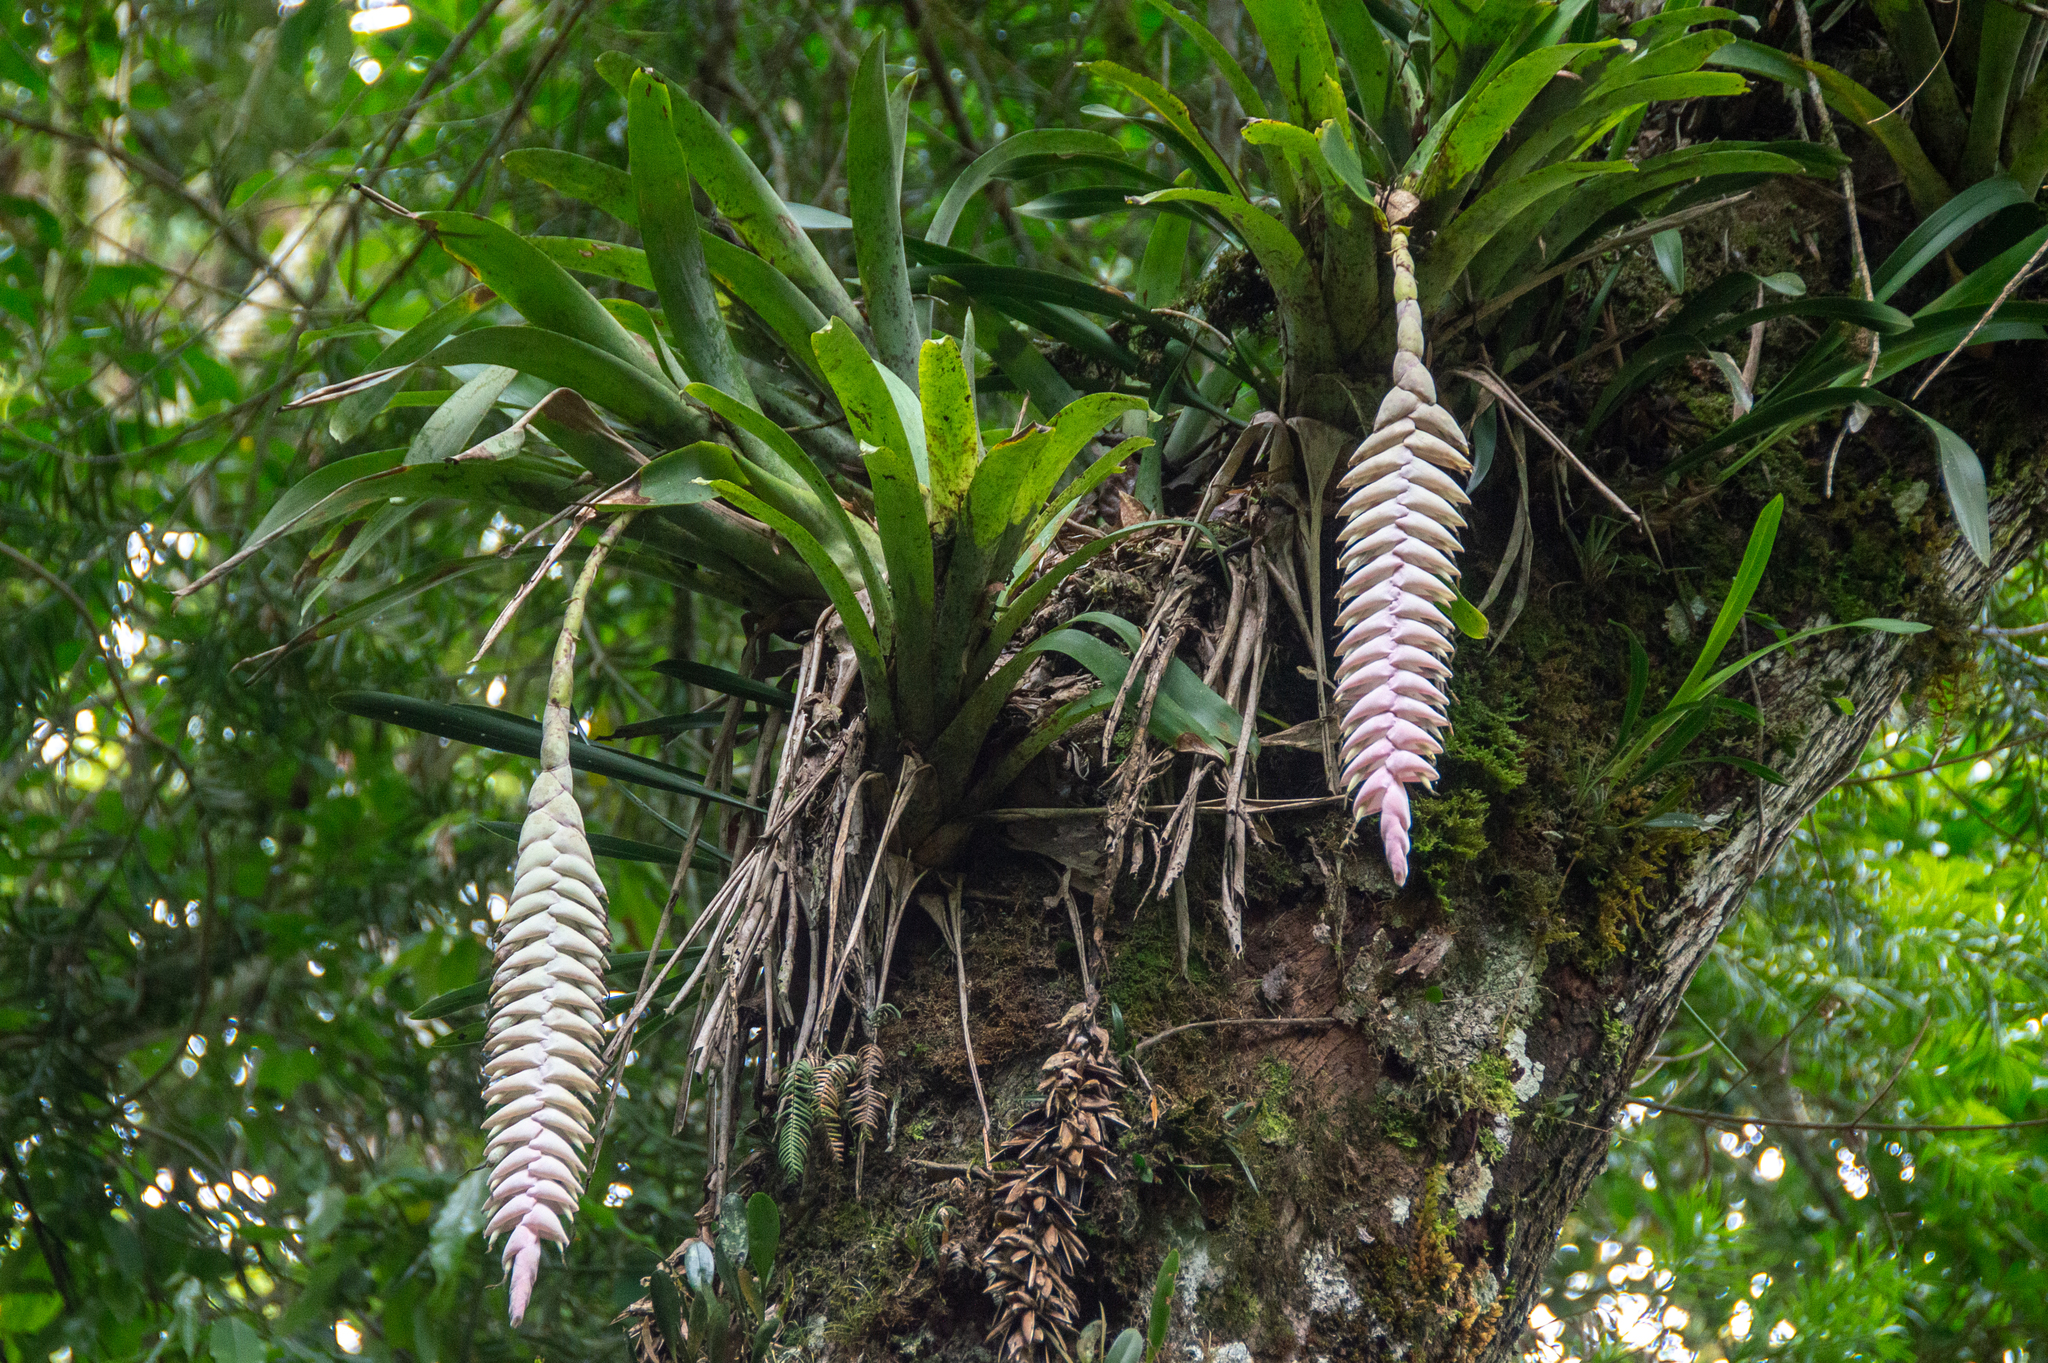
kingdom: Plantae
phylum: Tracheophyta
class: Liliopsida
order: Poales
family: Bromeliaceae
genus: Vriesea
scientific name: Vriesea pardalina
